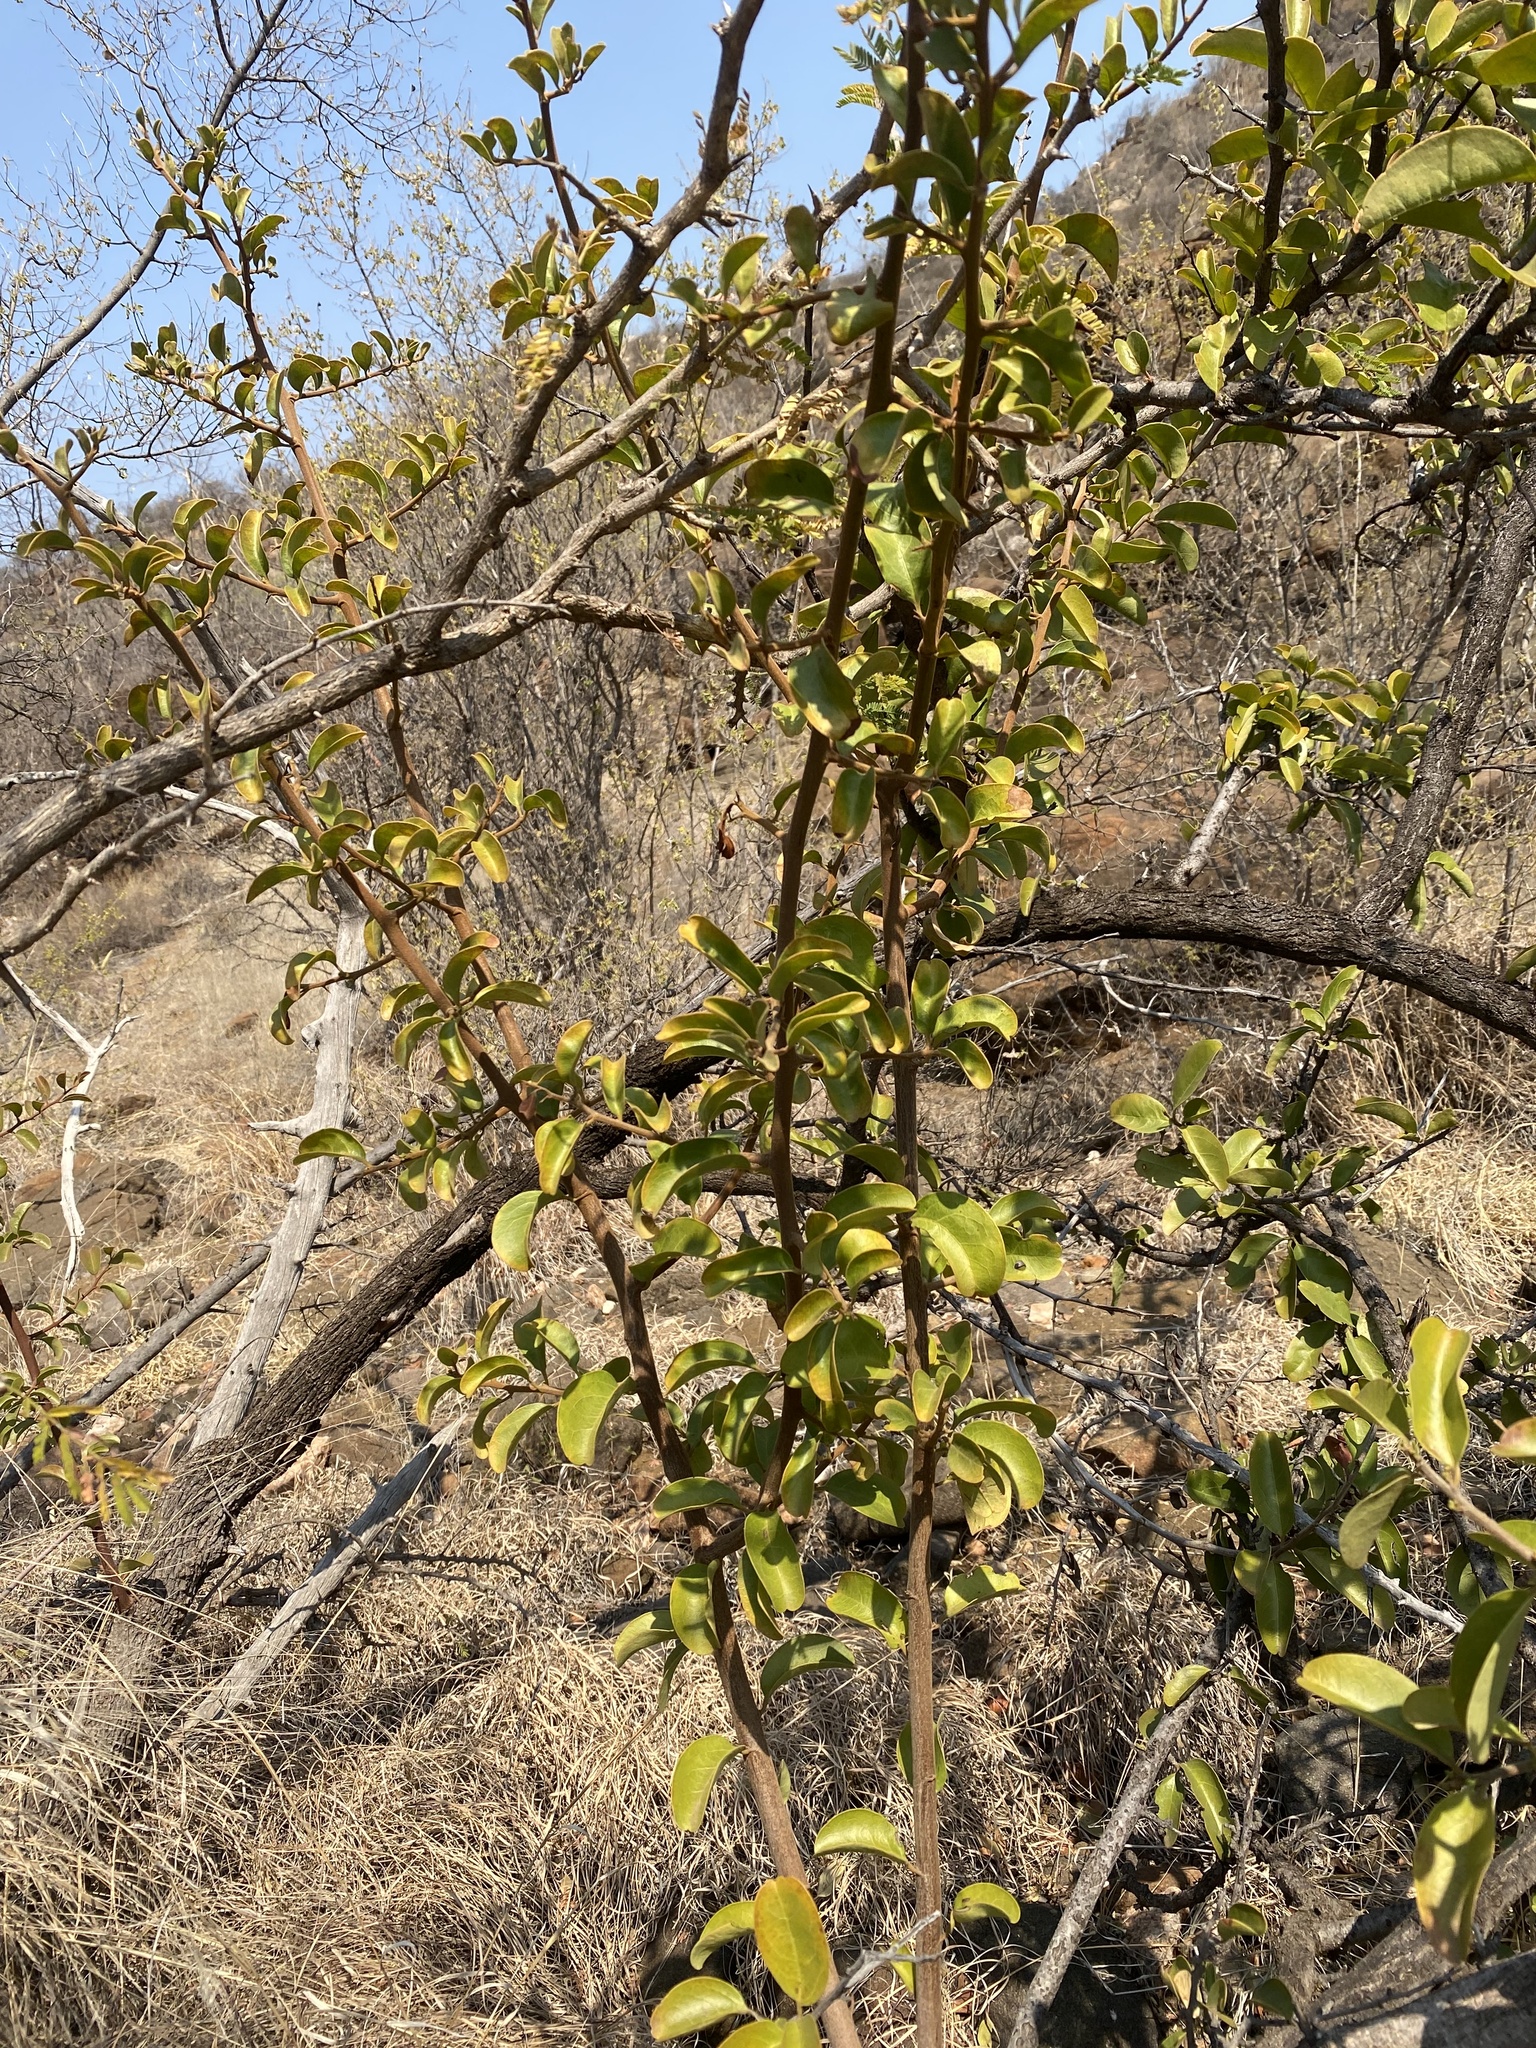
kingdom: Plantae
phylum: Tracheophyta
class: Magnoliopsida
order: Santalales
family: Ximeniaceae
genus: Ximenia
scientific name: Ximenia caffra
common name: Large sourplum
